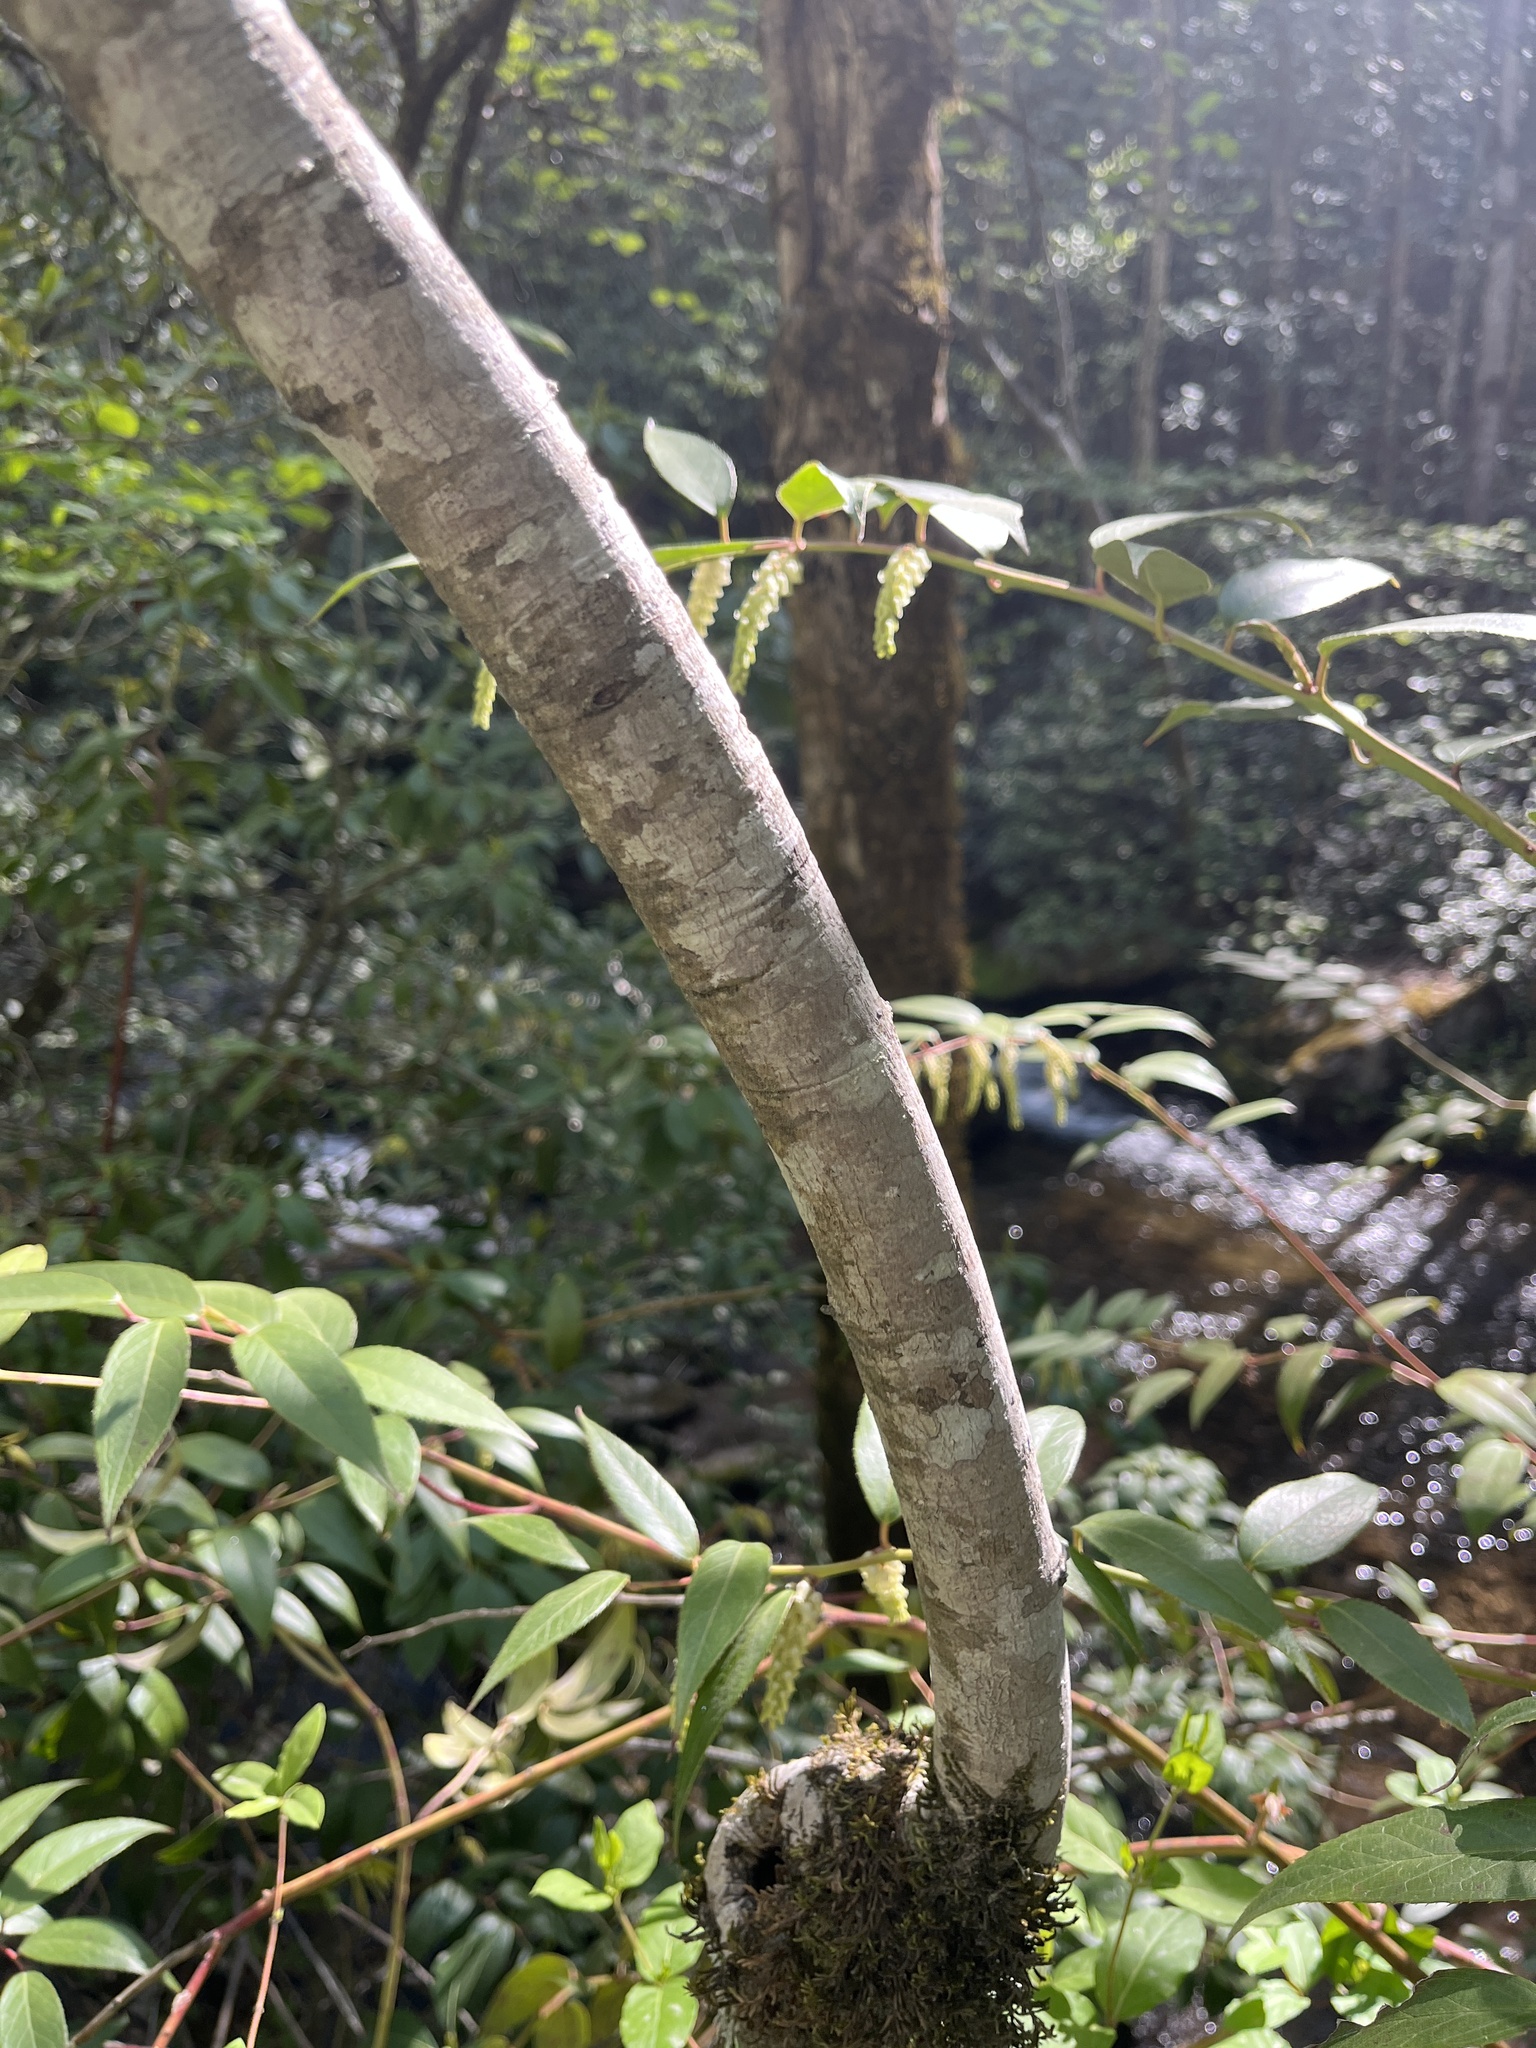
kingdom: Plantae
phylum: Tracheophyta
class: Magnoliopsida
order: Magnoliales
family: Magnoliaceae
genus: Magnolia
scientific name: Magnolia tripetala
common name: Umbrella magnolia
